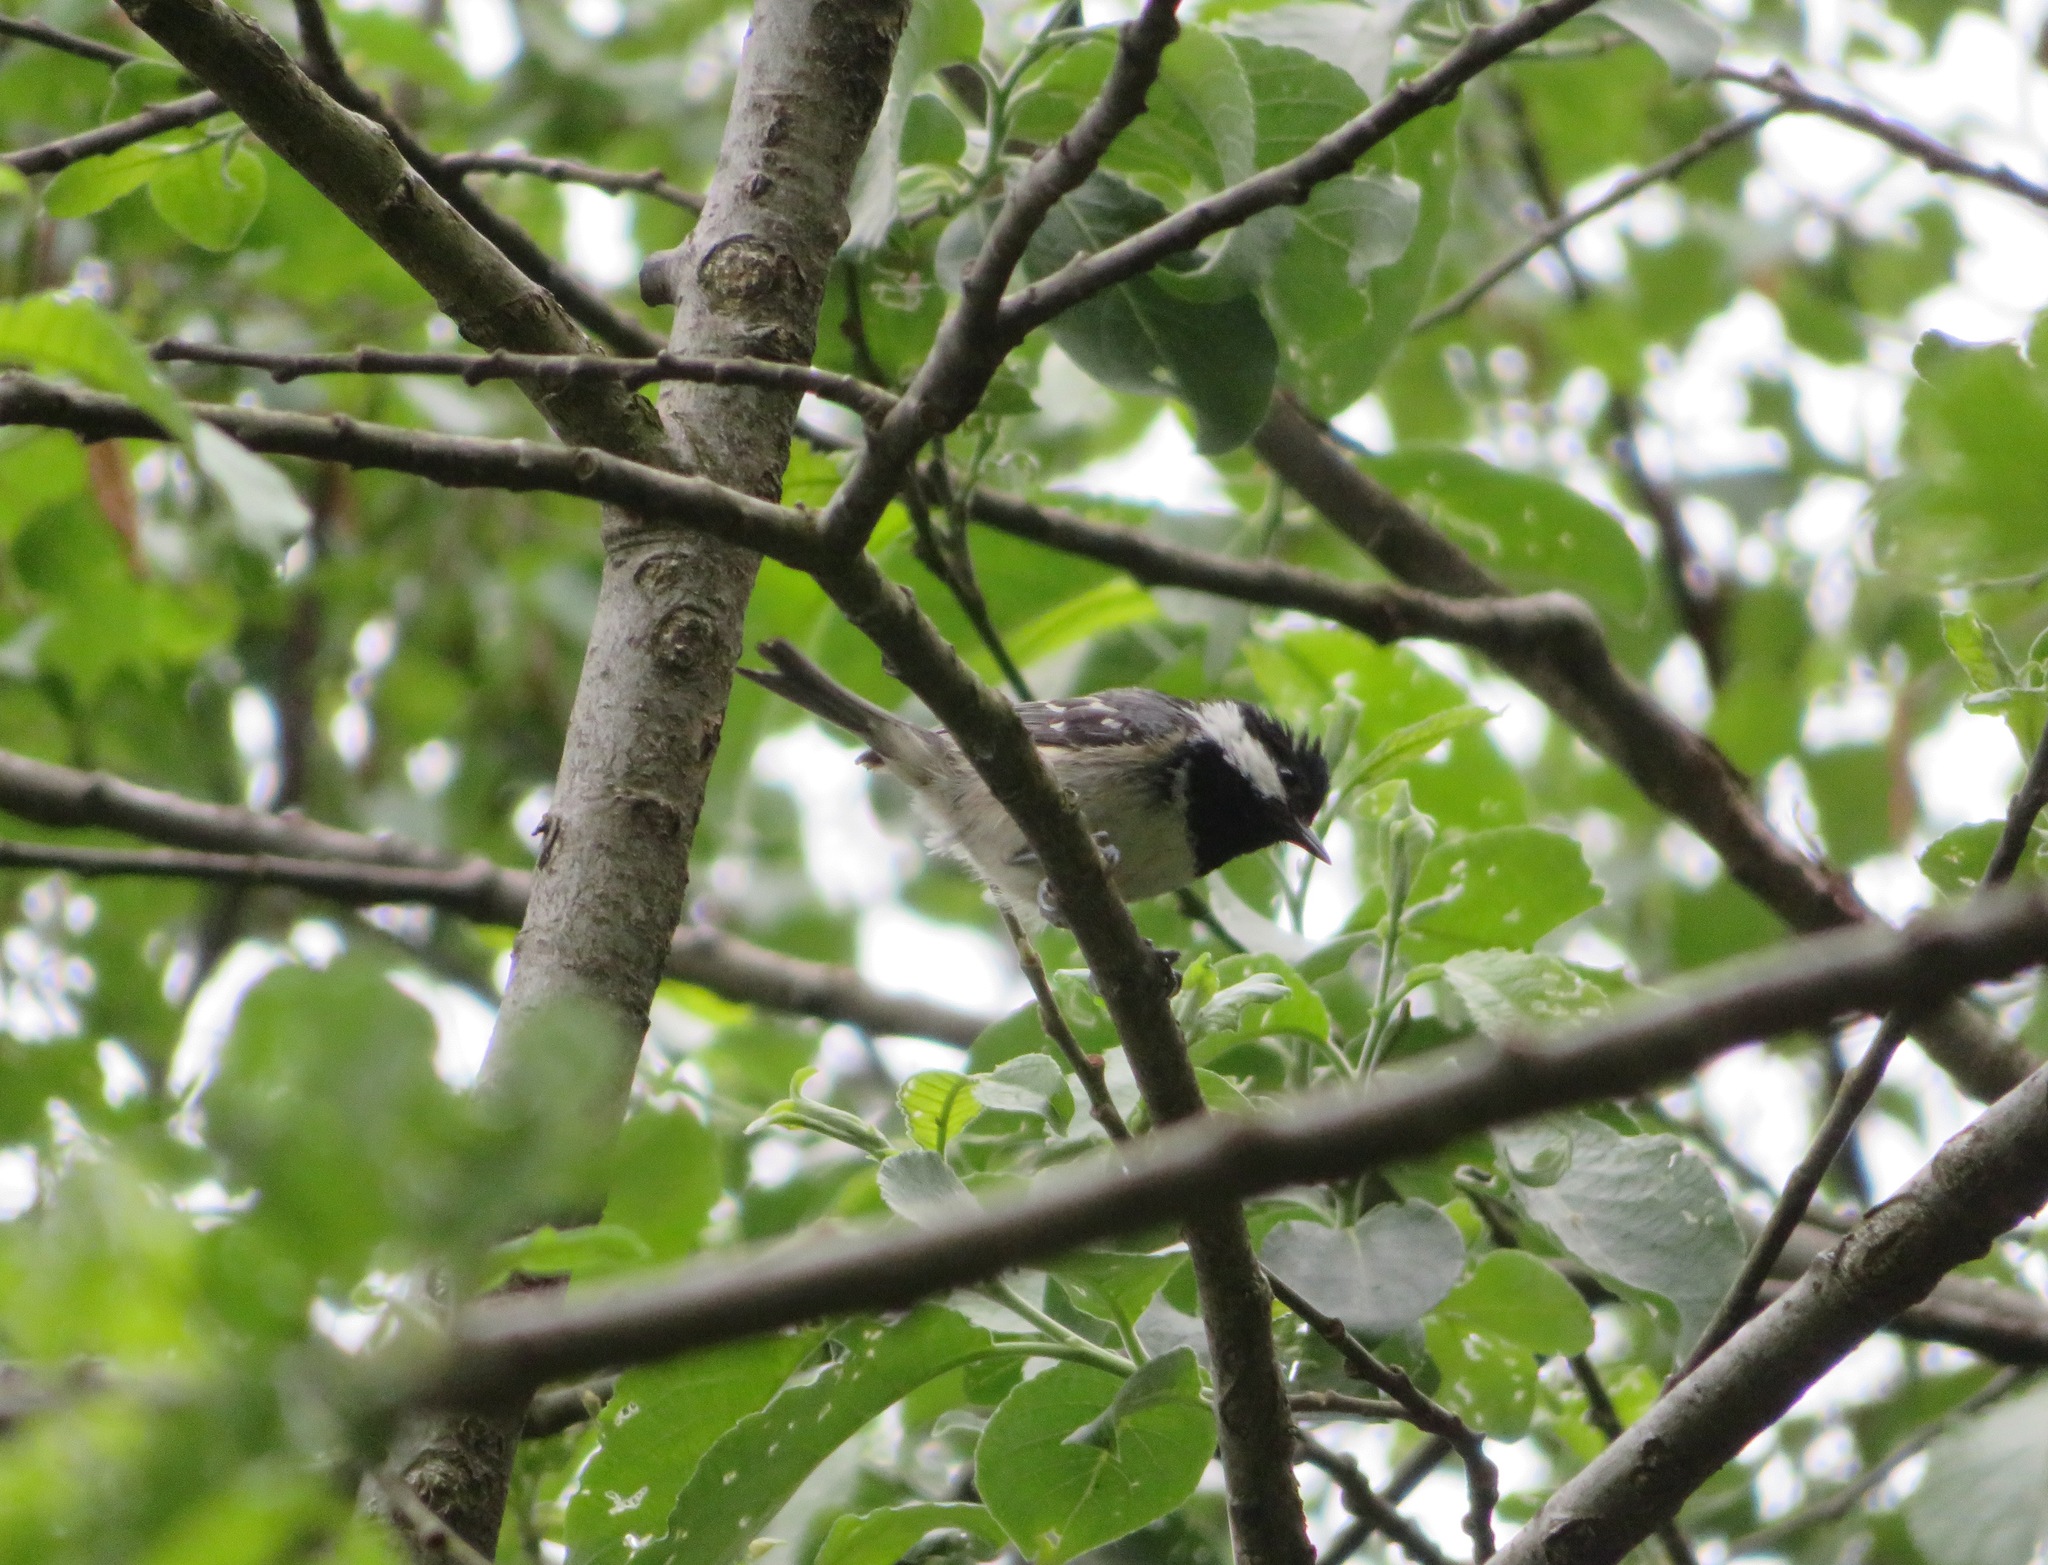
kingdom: Animalia
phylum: Chordata
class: Aves
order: Passeriformes
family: Paridae
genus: Periparus
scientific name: Periparus ater
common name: Coal tit
